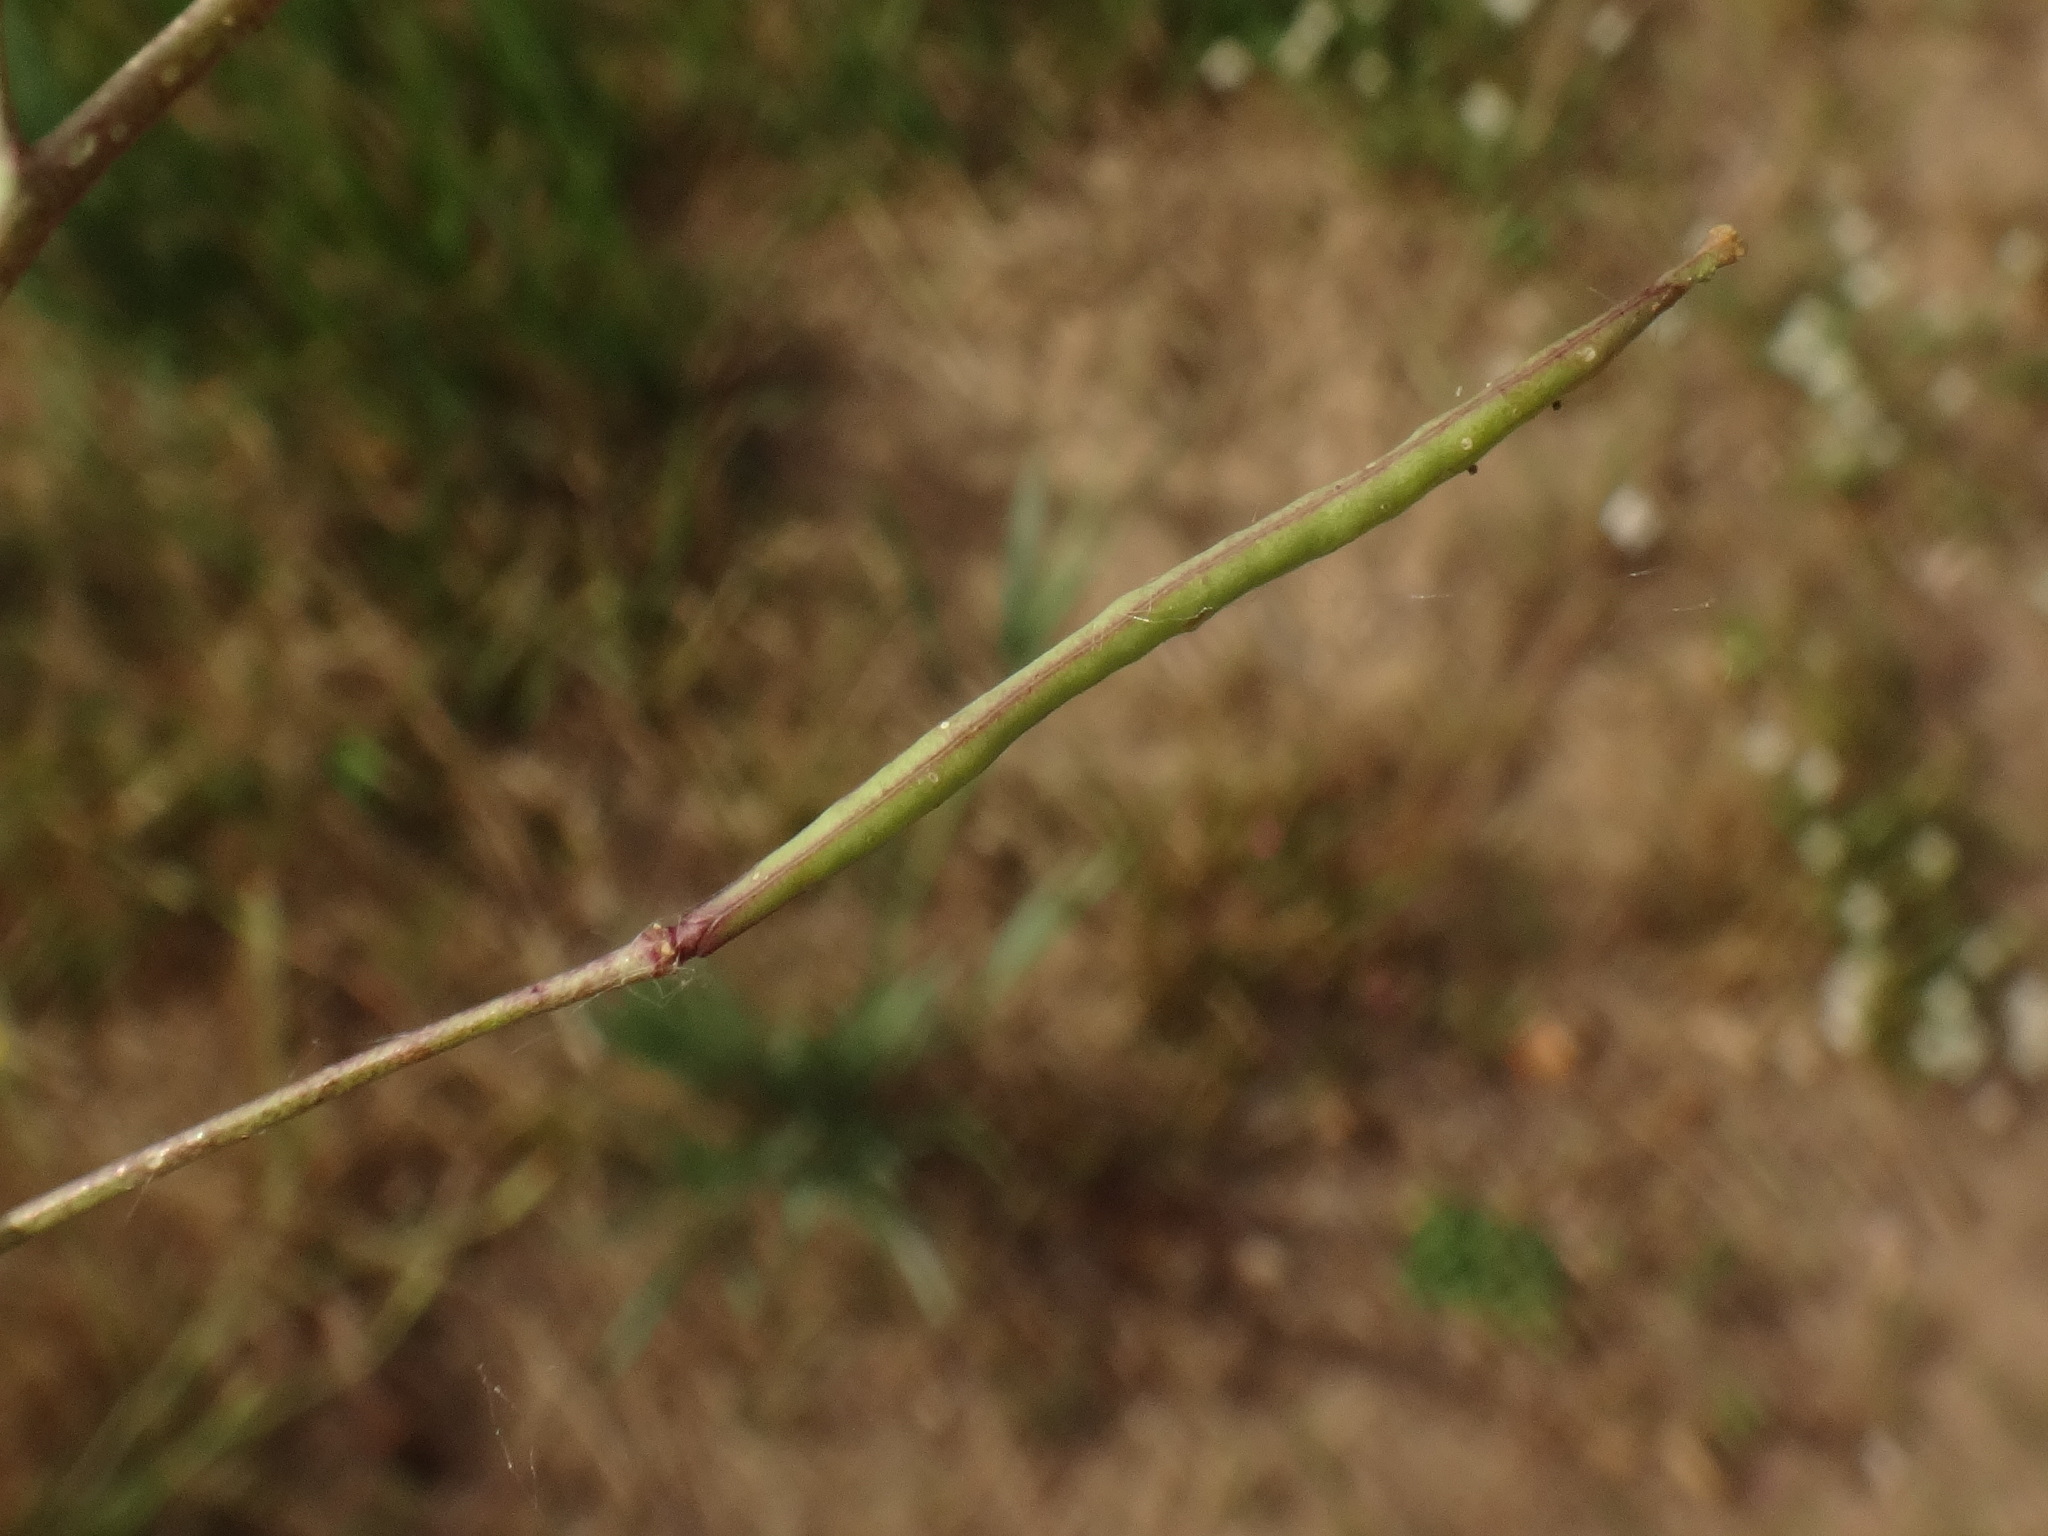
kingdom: Plantae
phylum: Tracheophyta
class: Magnoliopsida
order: Brassicales
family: Brassicaceae
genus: Diplotaxis
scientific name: Diplotaxis tenuifolia
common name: Perennial wall-rocket
